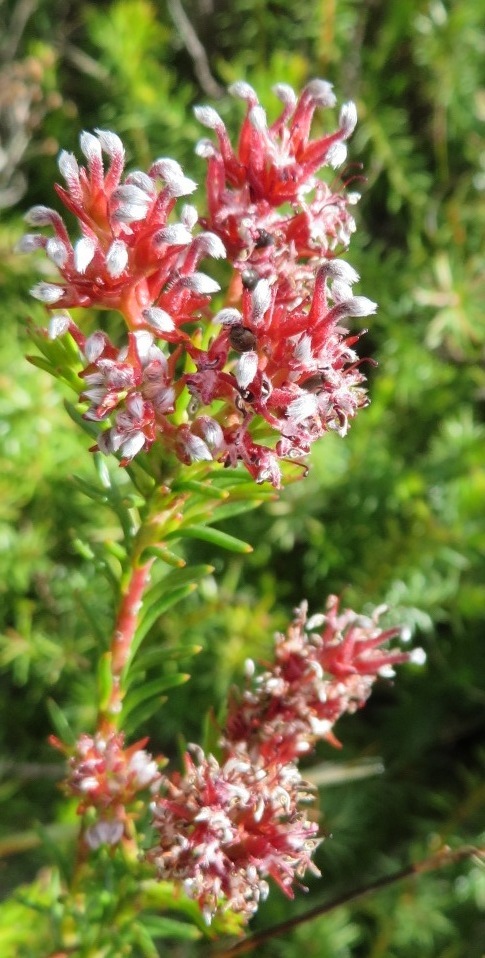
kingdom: Plantae
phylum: Tracheophyta
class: Magnoliopsida
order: Proteales
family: Proteaceae
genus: Spatalla
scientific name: Spatalla confusa
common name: Long-tube spoon
